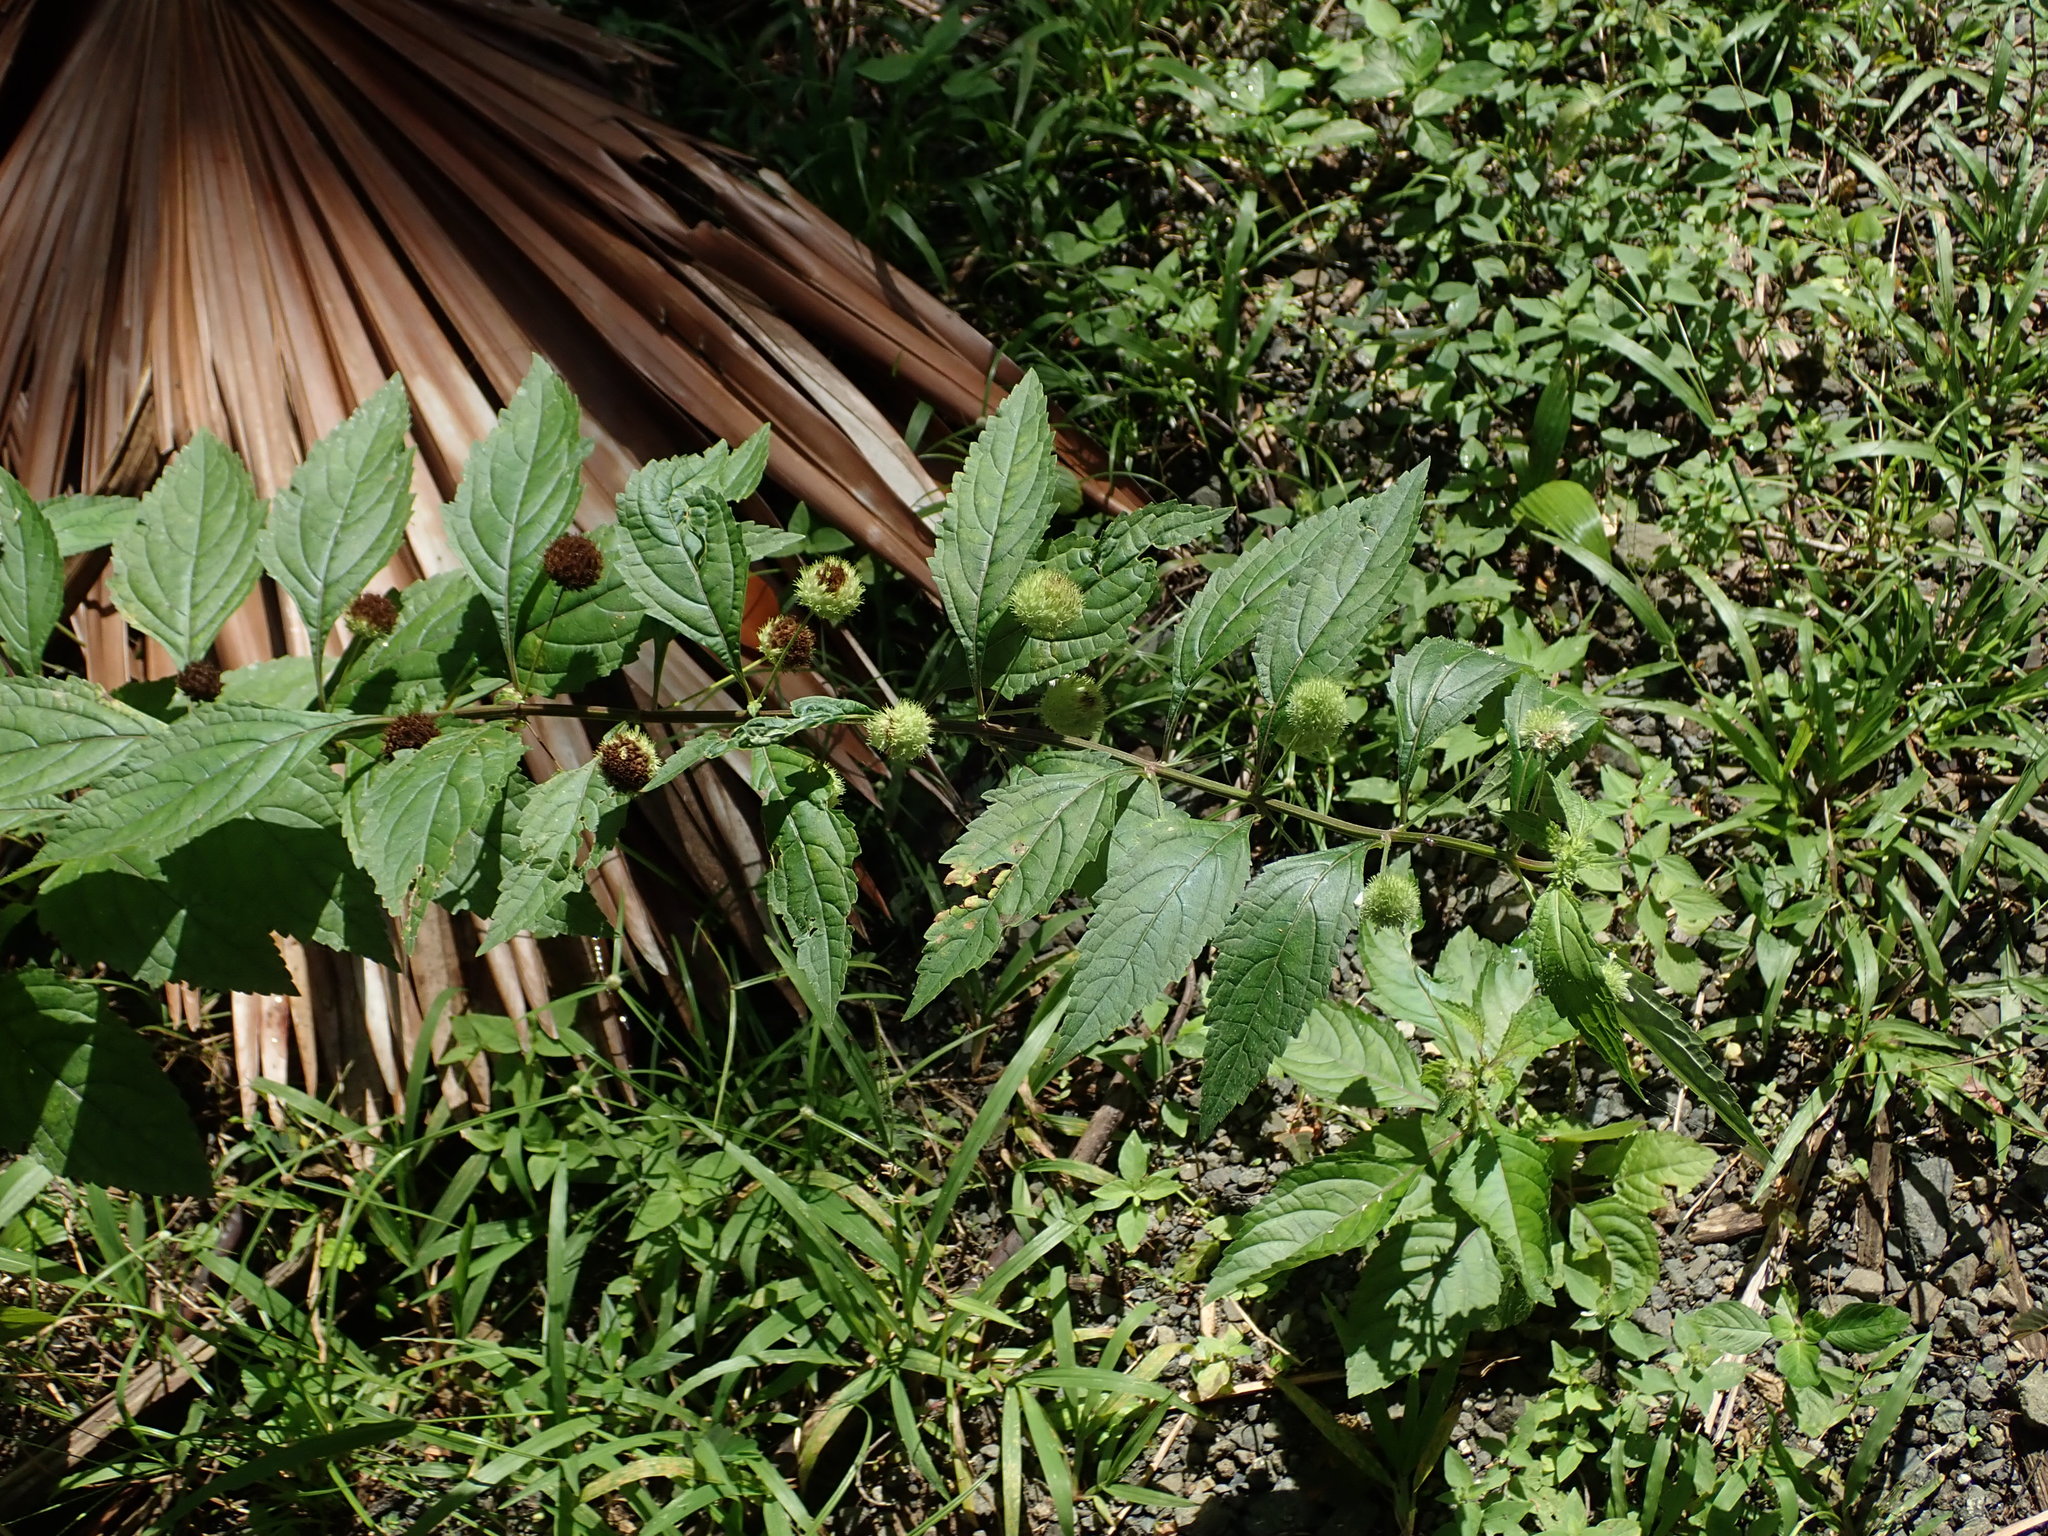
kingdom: Plantae
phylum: Tracheophyta
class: Magnoliopsida
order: Lamiales
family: Lamiaceae
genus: Hyptis
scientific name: Hyptis capitata
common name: False ironwort
